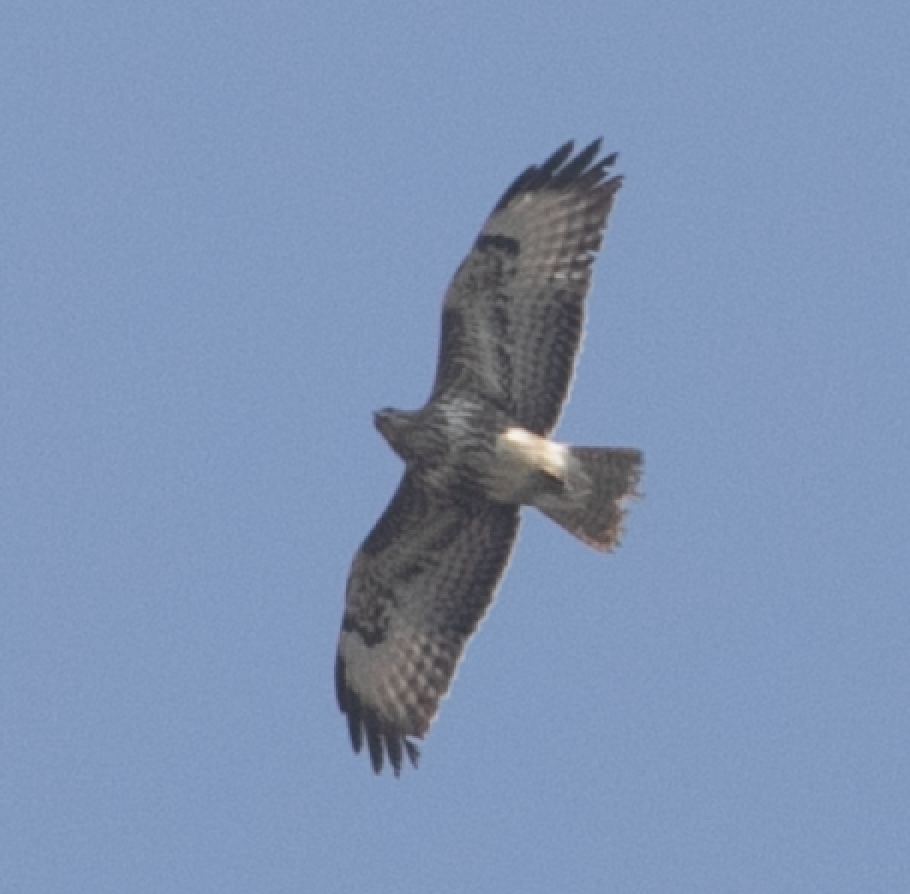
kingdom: Animalia
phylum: Chordata
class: Aves
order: Accipitriformes
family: Accipitridae
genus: Buteo
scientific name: Buteo buteo
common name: Common buzzard
